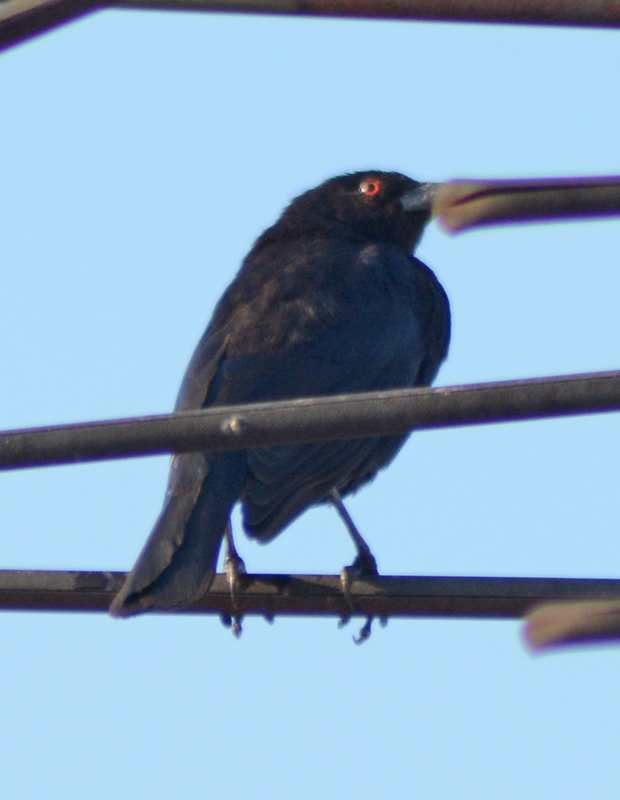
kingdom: Animalia
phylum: Chordata
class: Aves
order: Passeriformes
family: Icteridae
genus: Molothrus
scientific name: Molothrus aeneus
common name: Bronzed cowbird
